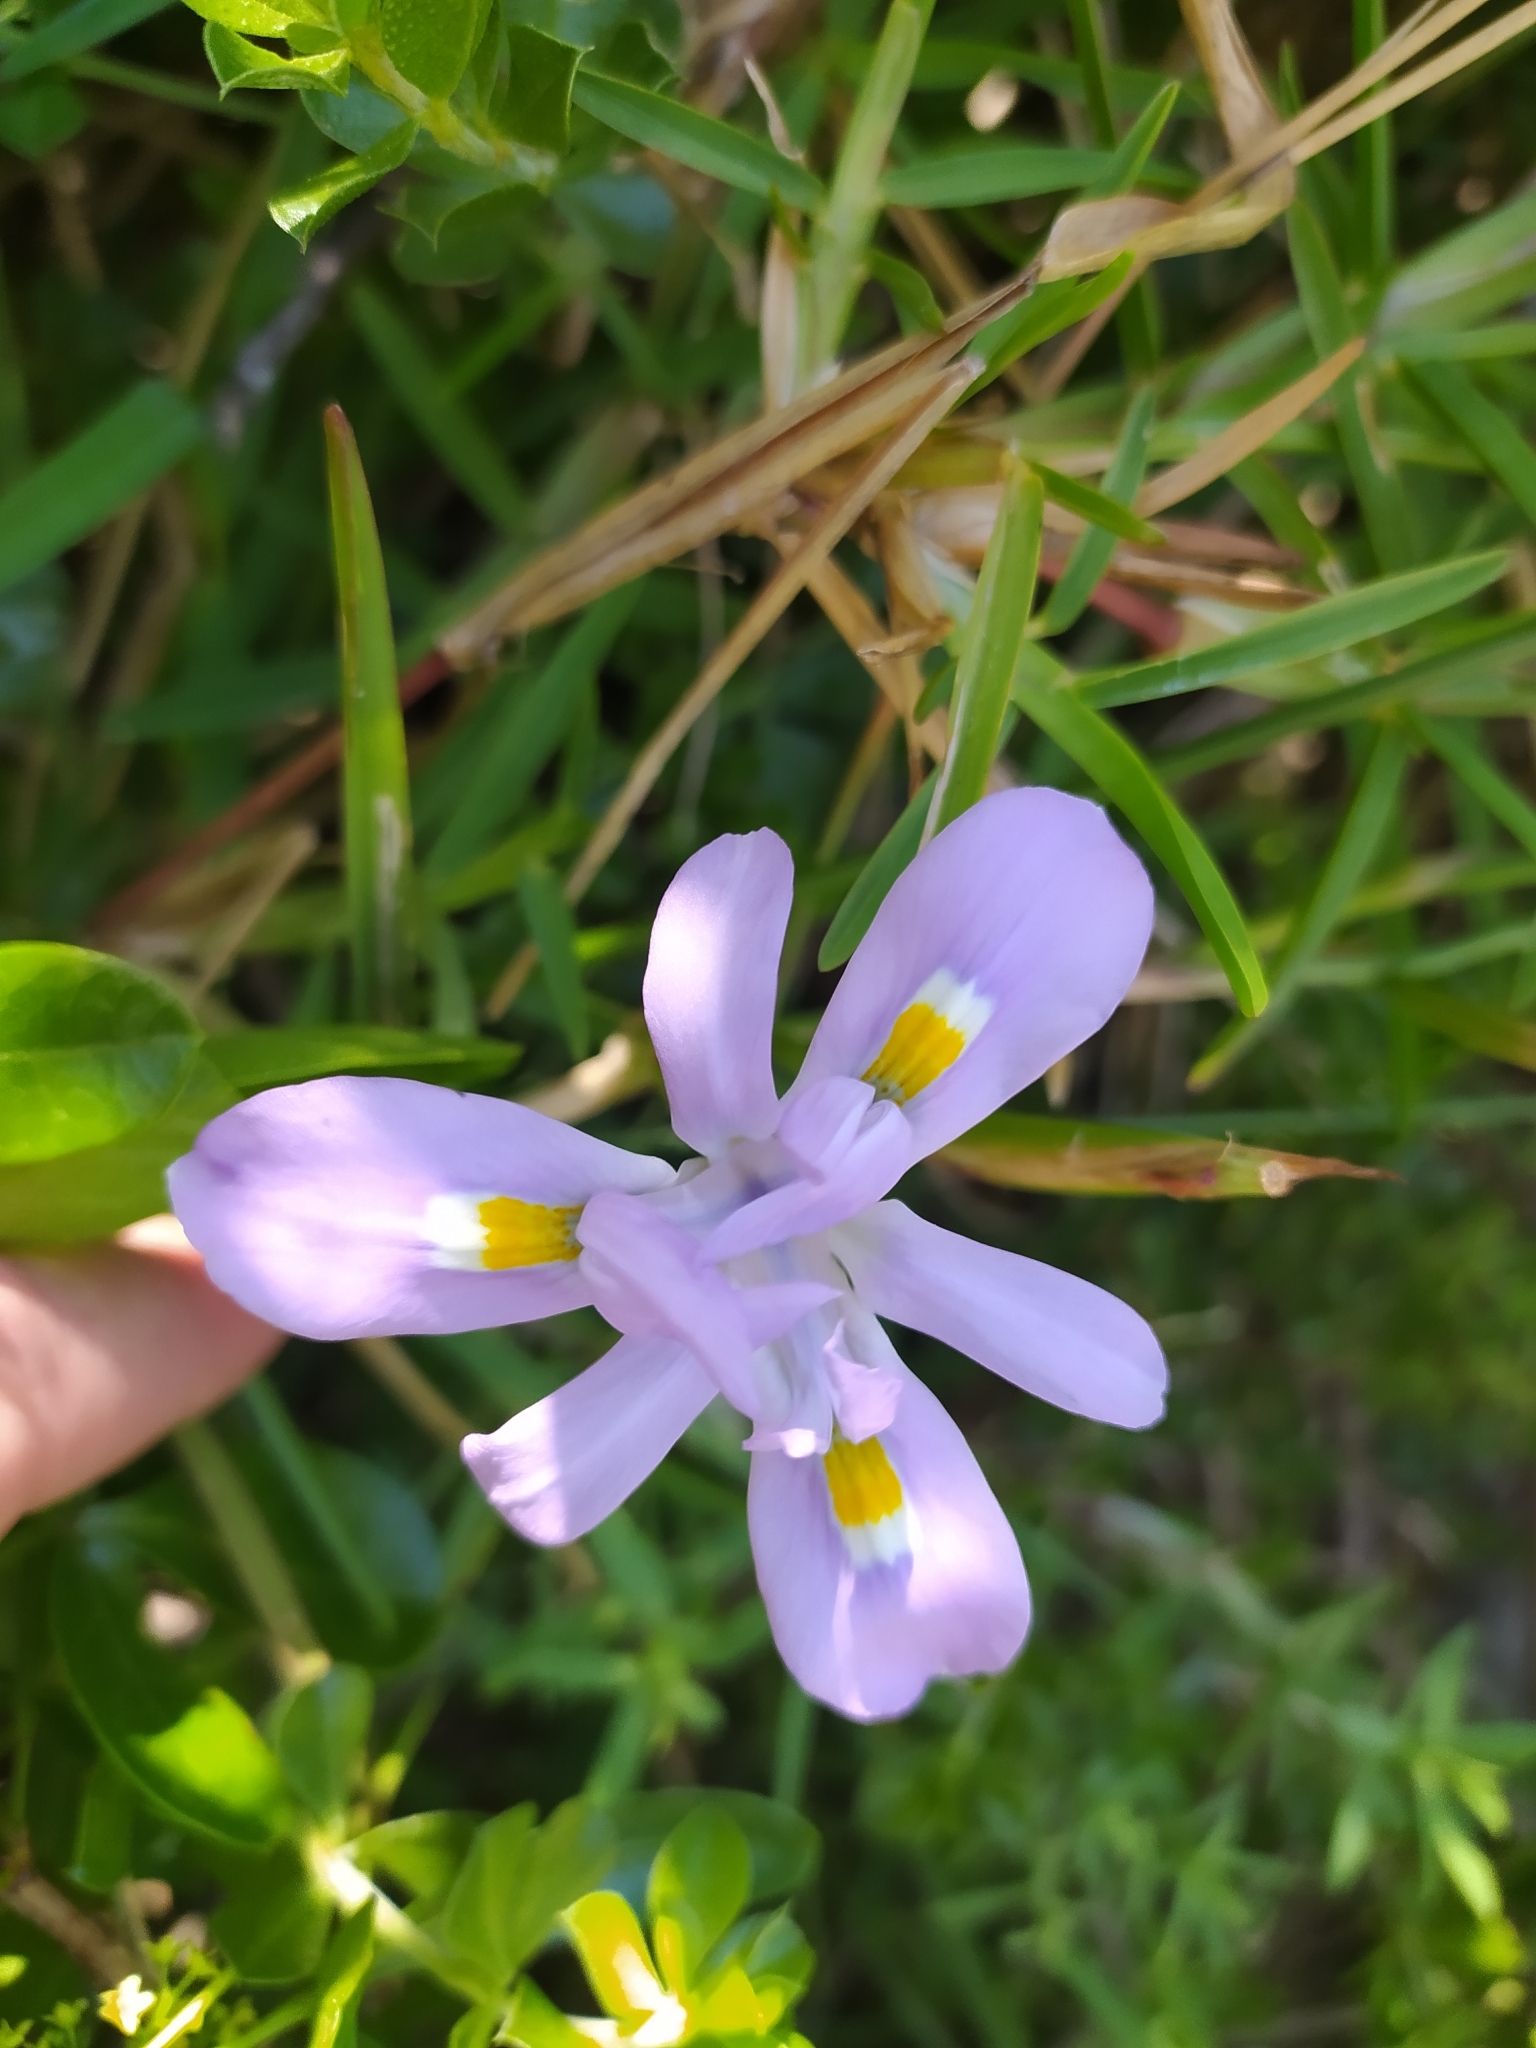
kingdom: Plantae
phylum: Tracheophyta
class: Liliopsida
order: Asparagales
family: Iridaceae
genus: Moraea
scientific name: Moraea fugax
